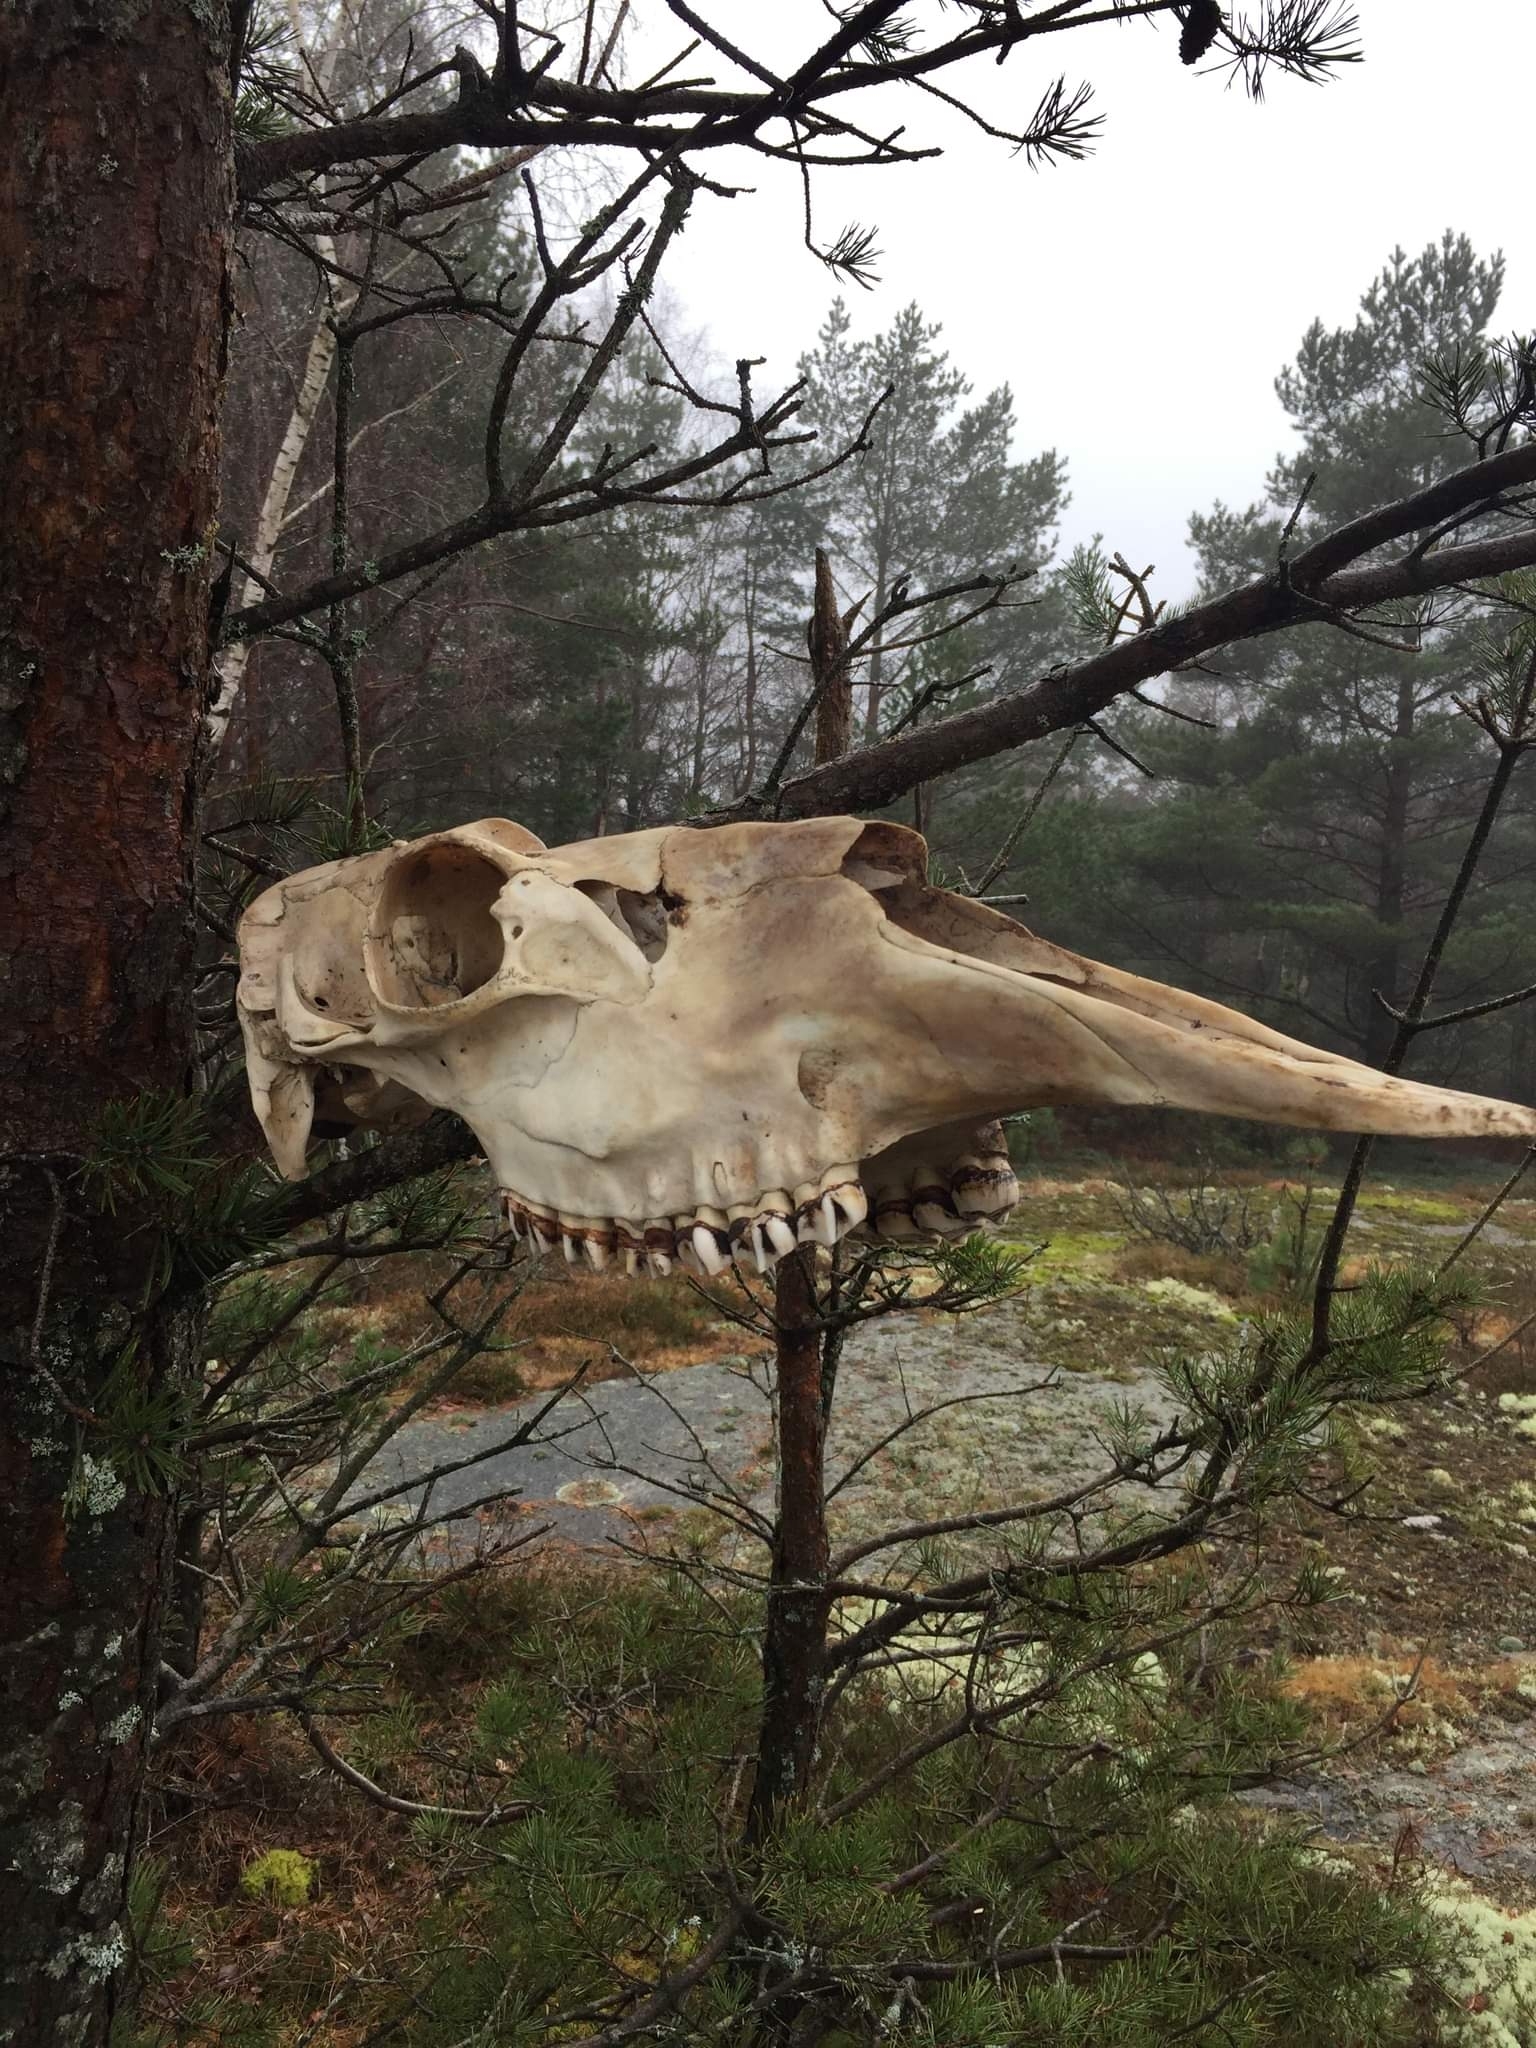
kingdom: Animalia
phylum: Chordata
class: Mammalia
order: Artiodactyla
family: Cervidae
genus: Alces
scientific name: Alces alces
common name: Moose
